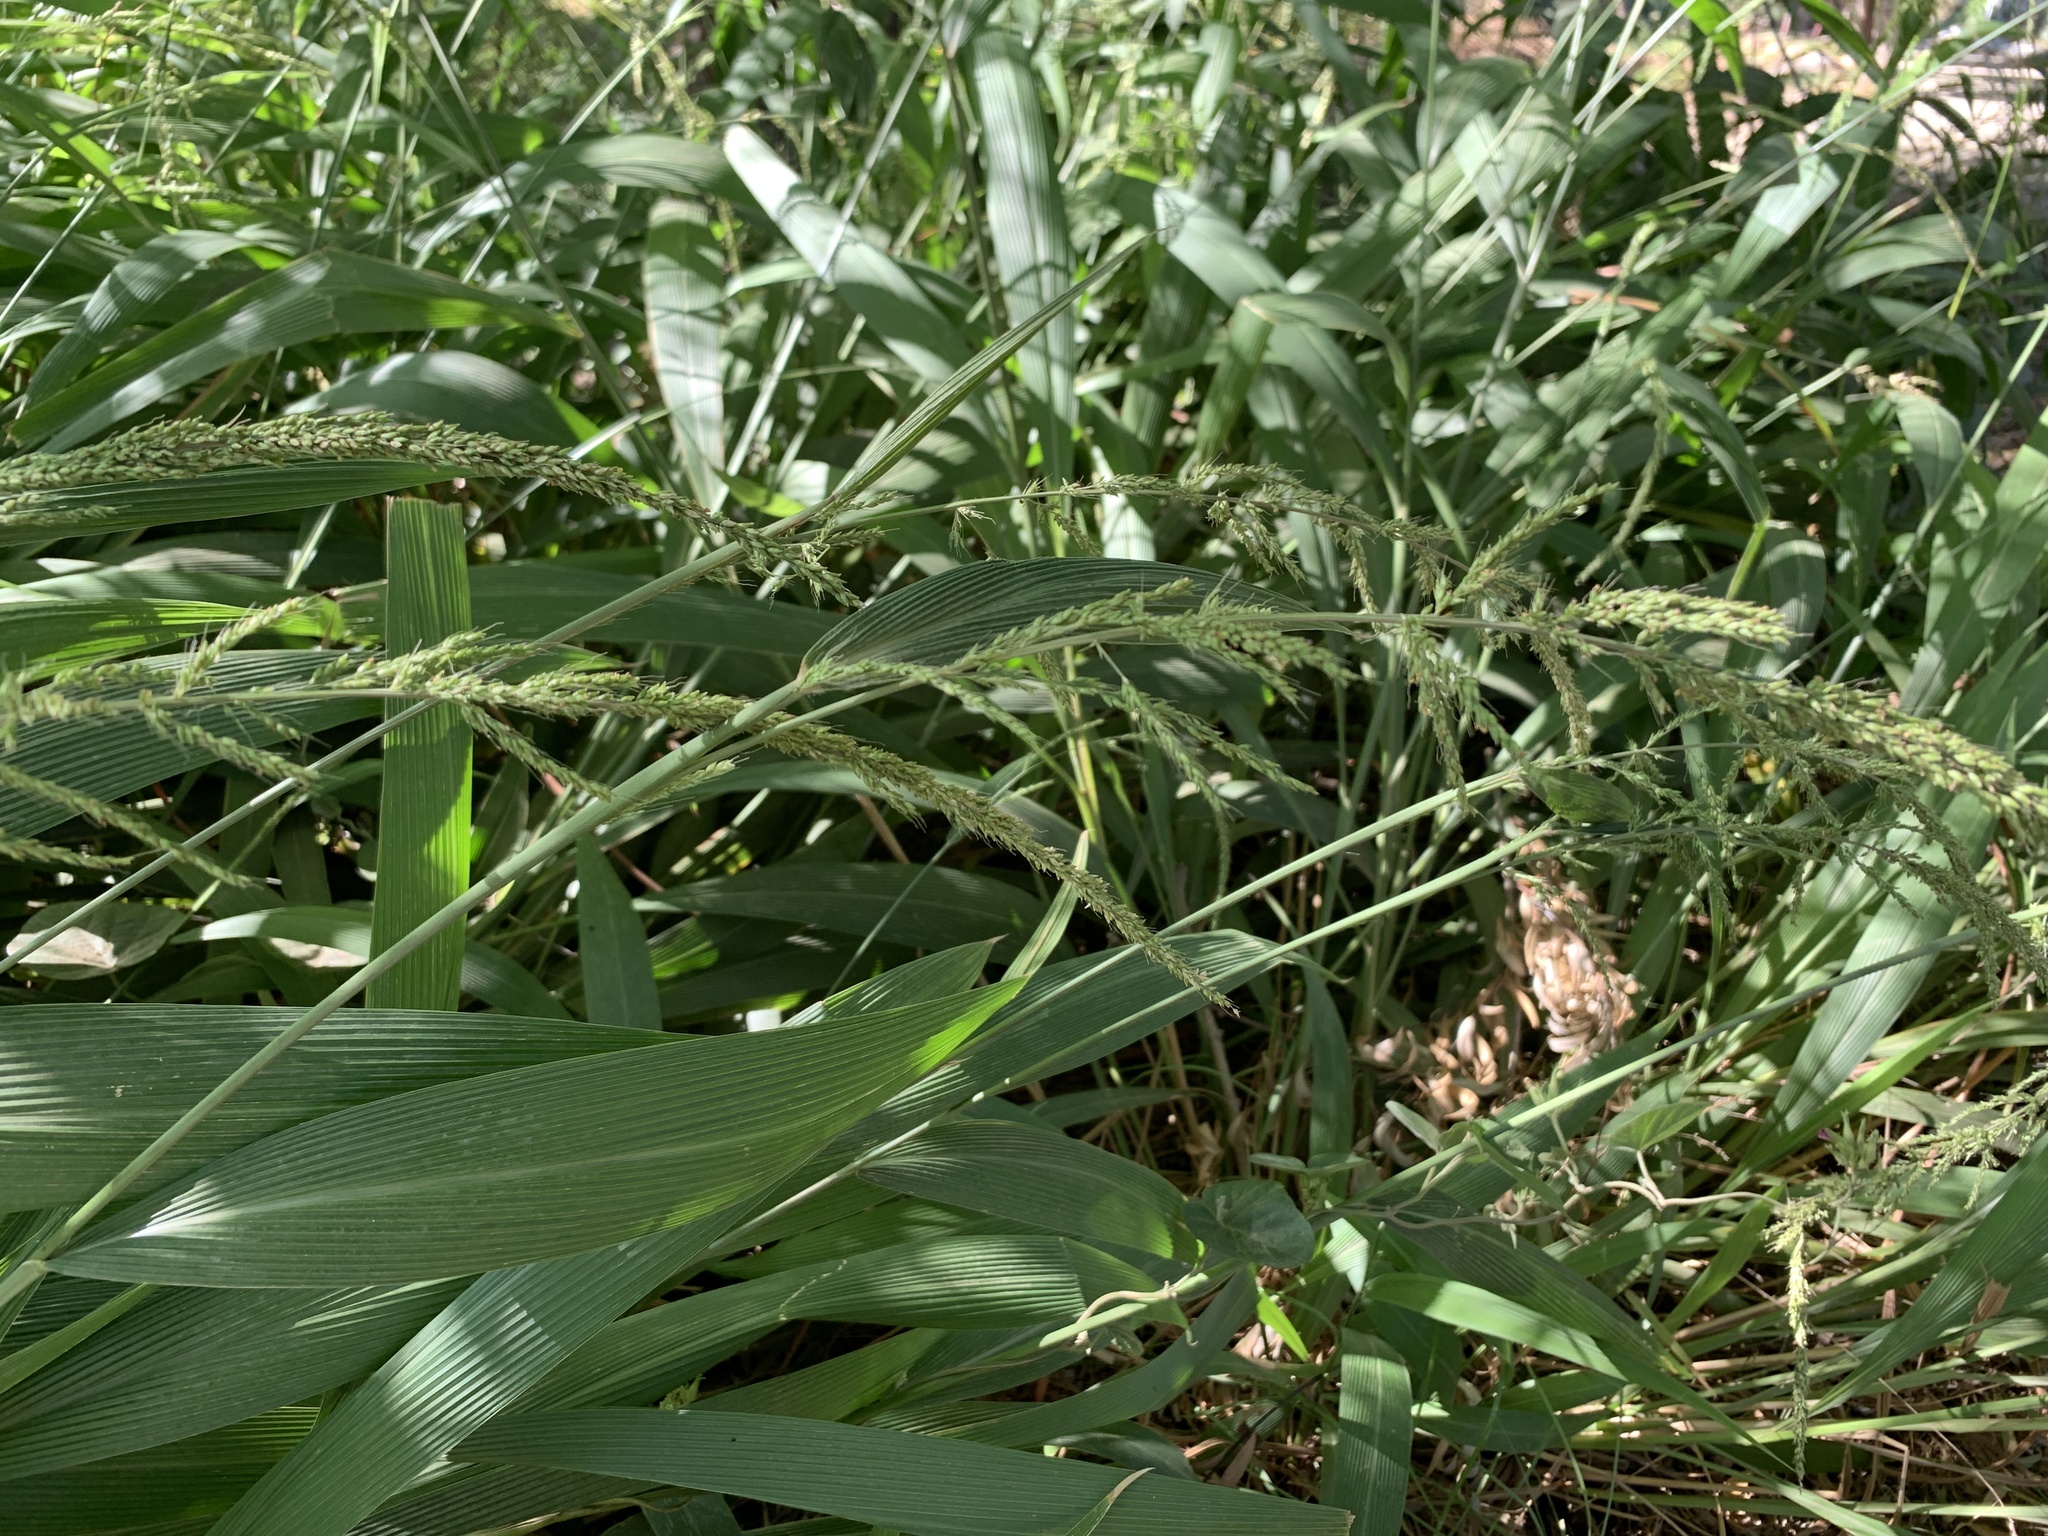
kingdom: Plantae
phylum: Tracheophyta
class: Liliopsida
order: Poales
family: Poaceae
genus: Setaria
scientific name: Setaria megaphylla
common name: Bigleaf bristlegrass
